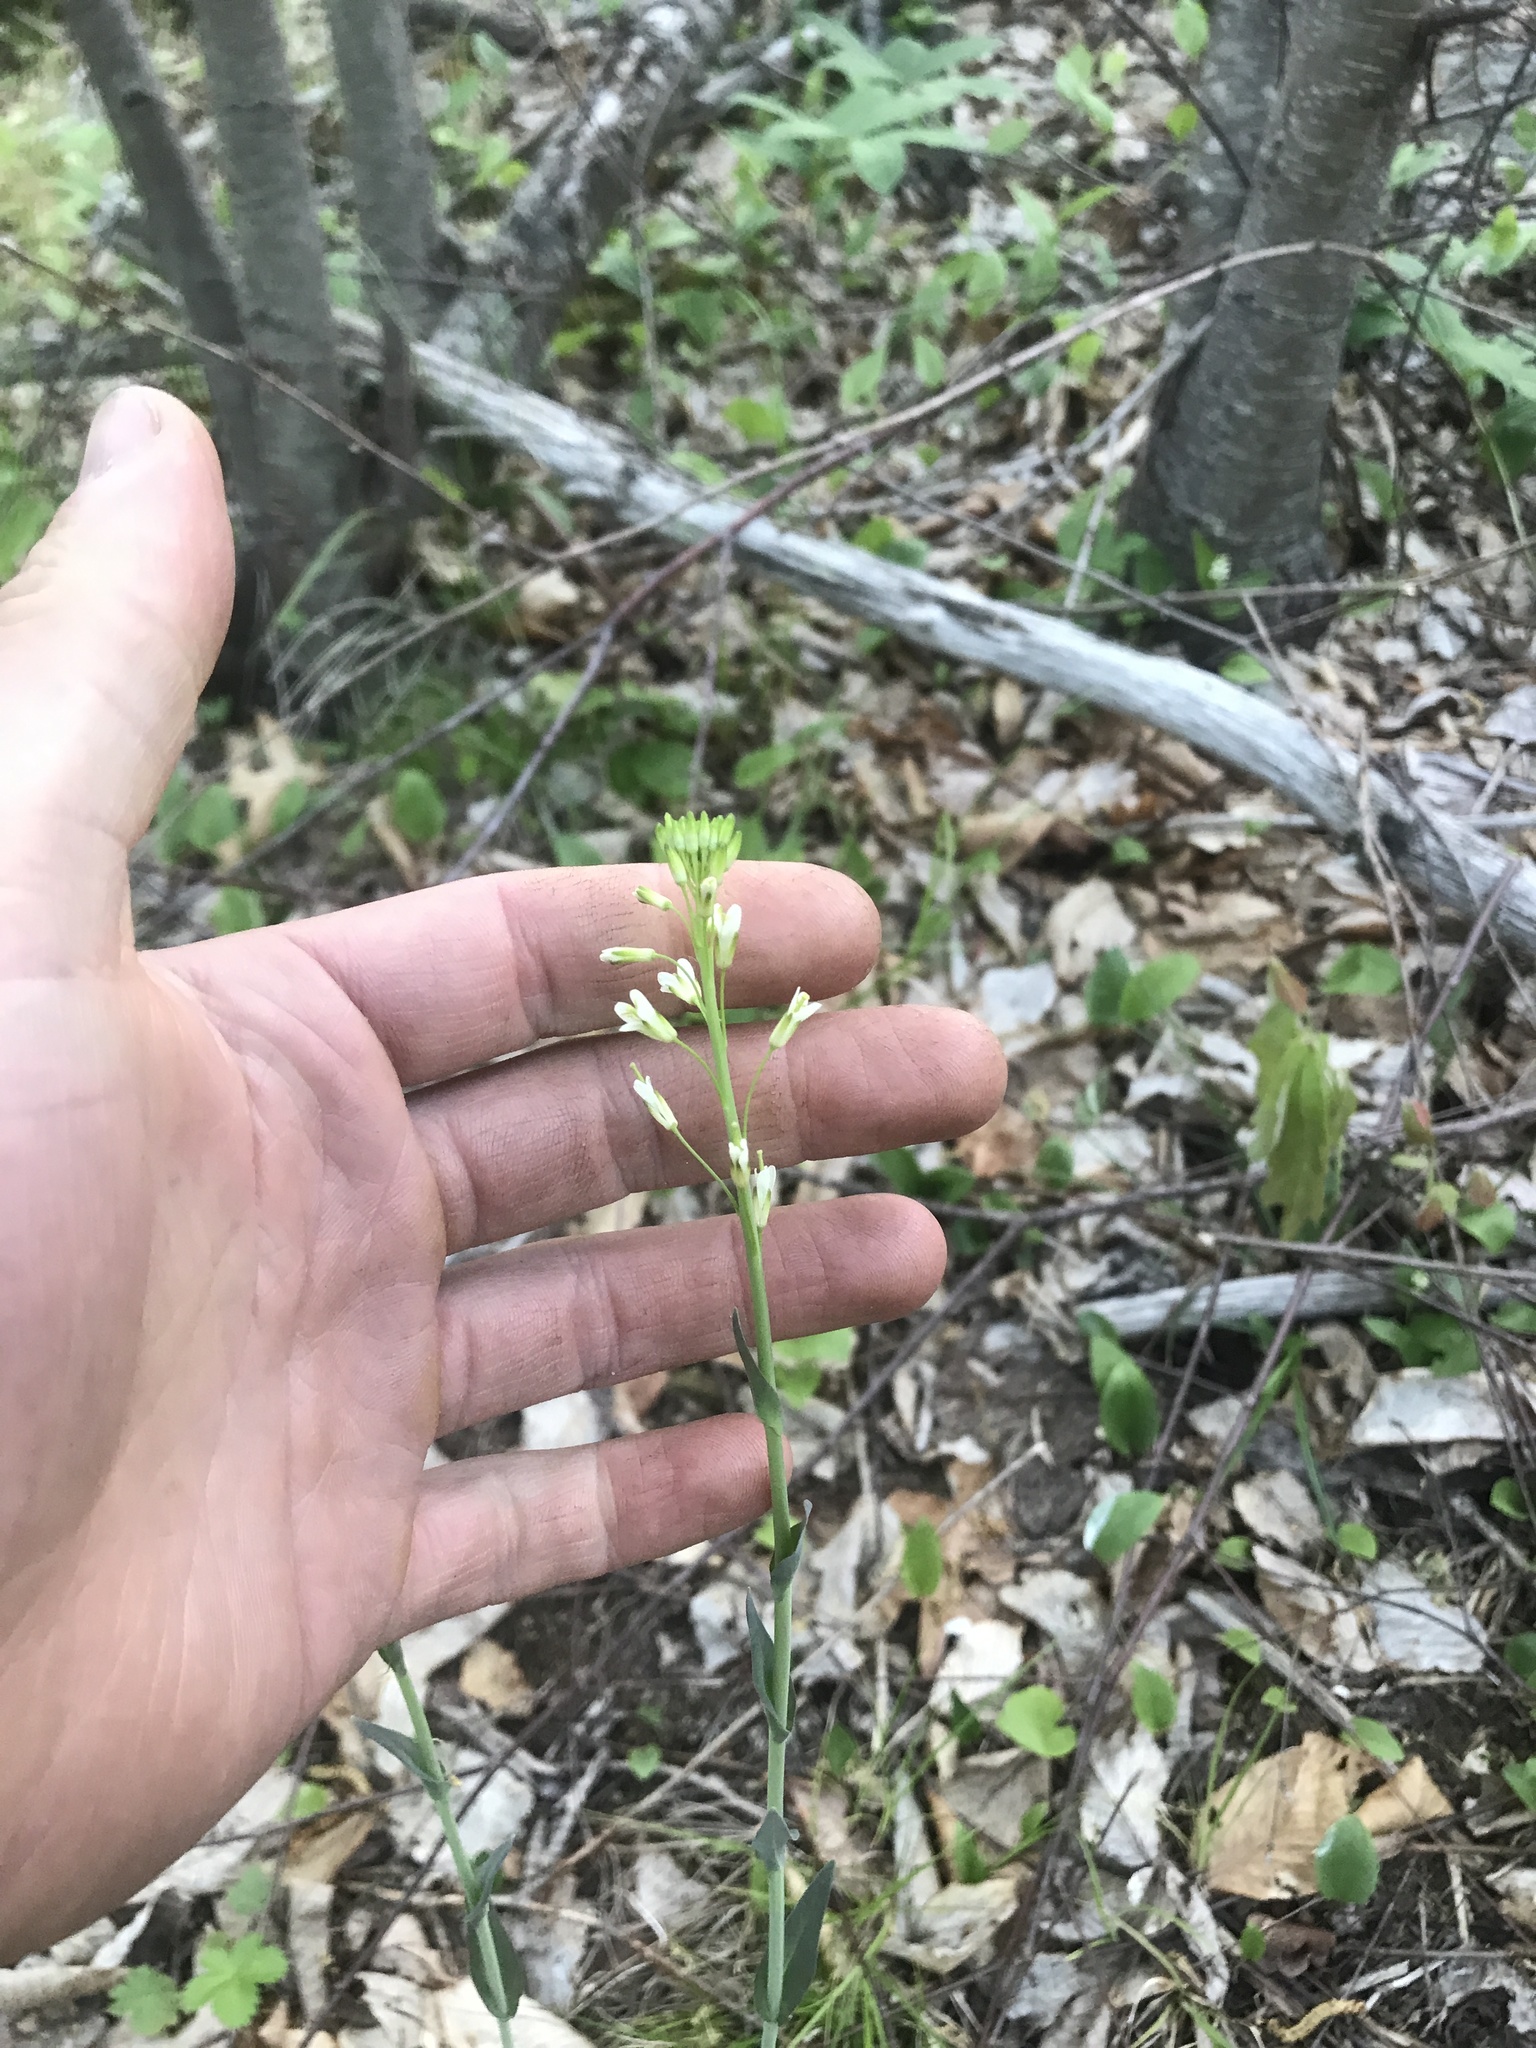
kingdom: Plantae
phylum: Tracheophyta
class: Magnoliopsida
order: Brassicales
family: Brassicaceae
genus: Turritis
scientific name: Turritis glabra
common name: Tower rockcress
